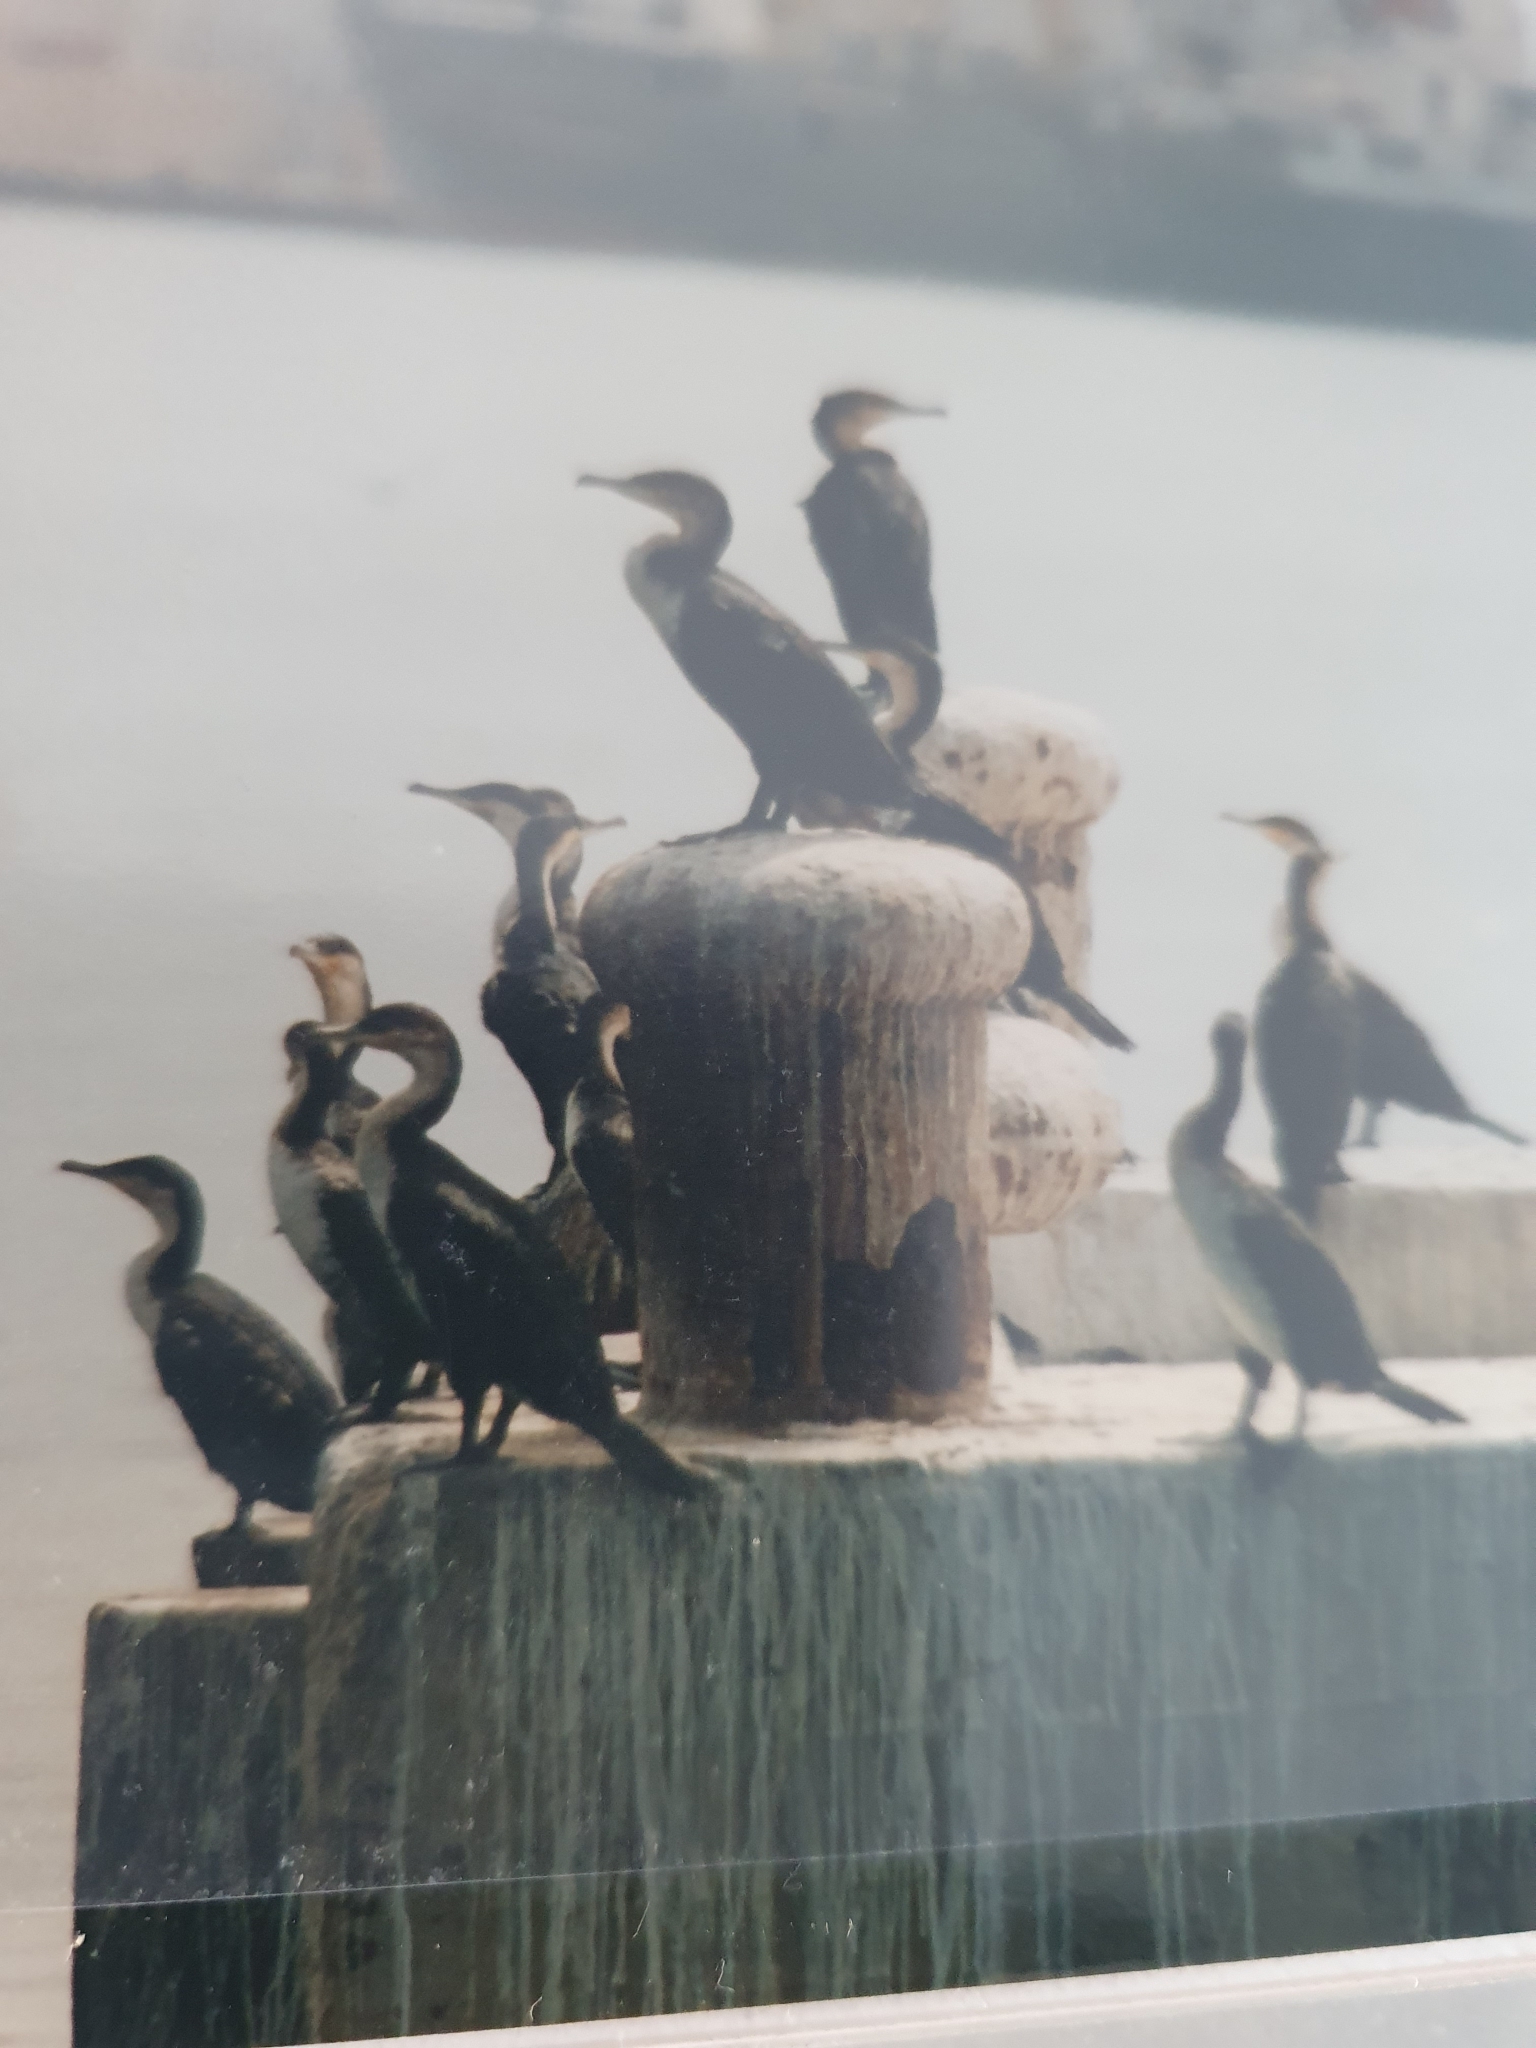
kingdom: Animalia
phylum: Chordata
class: Aves
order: Suliformes
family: Phalacrocoracidae
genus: Phalacrocorax
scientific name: Phalacrocorax carbo
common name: Great cormorant
